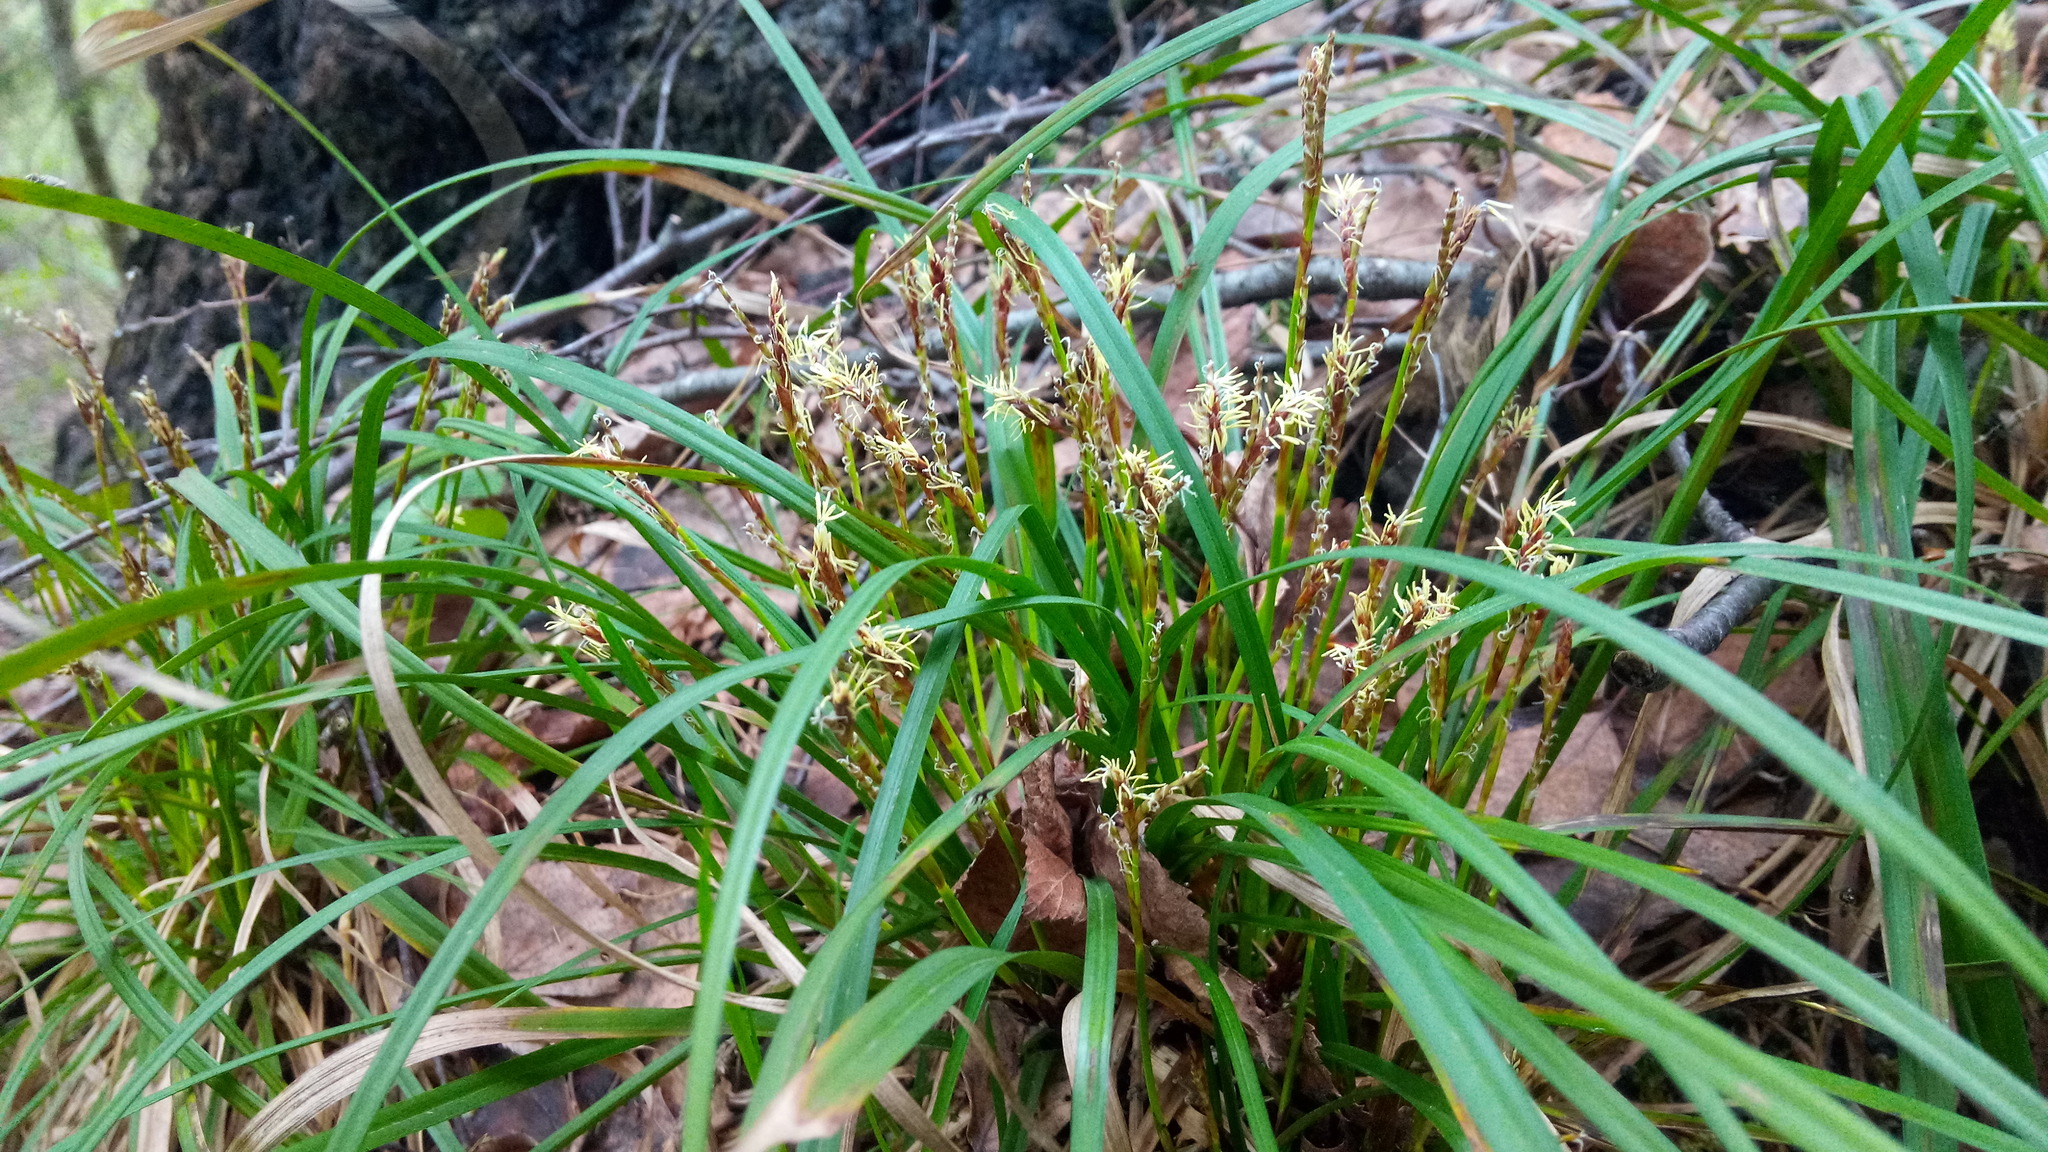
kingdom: Plantae
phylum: Tracheophyta
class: Liliopsida
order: Poales
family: Cyperaceae
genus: Carex
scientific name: Carex digitata
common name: Fingered sedge
